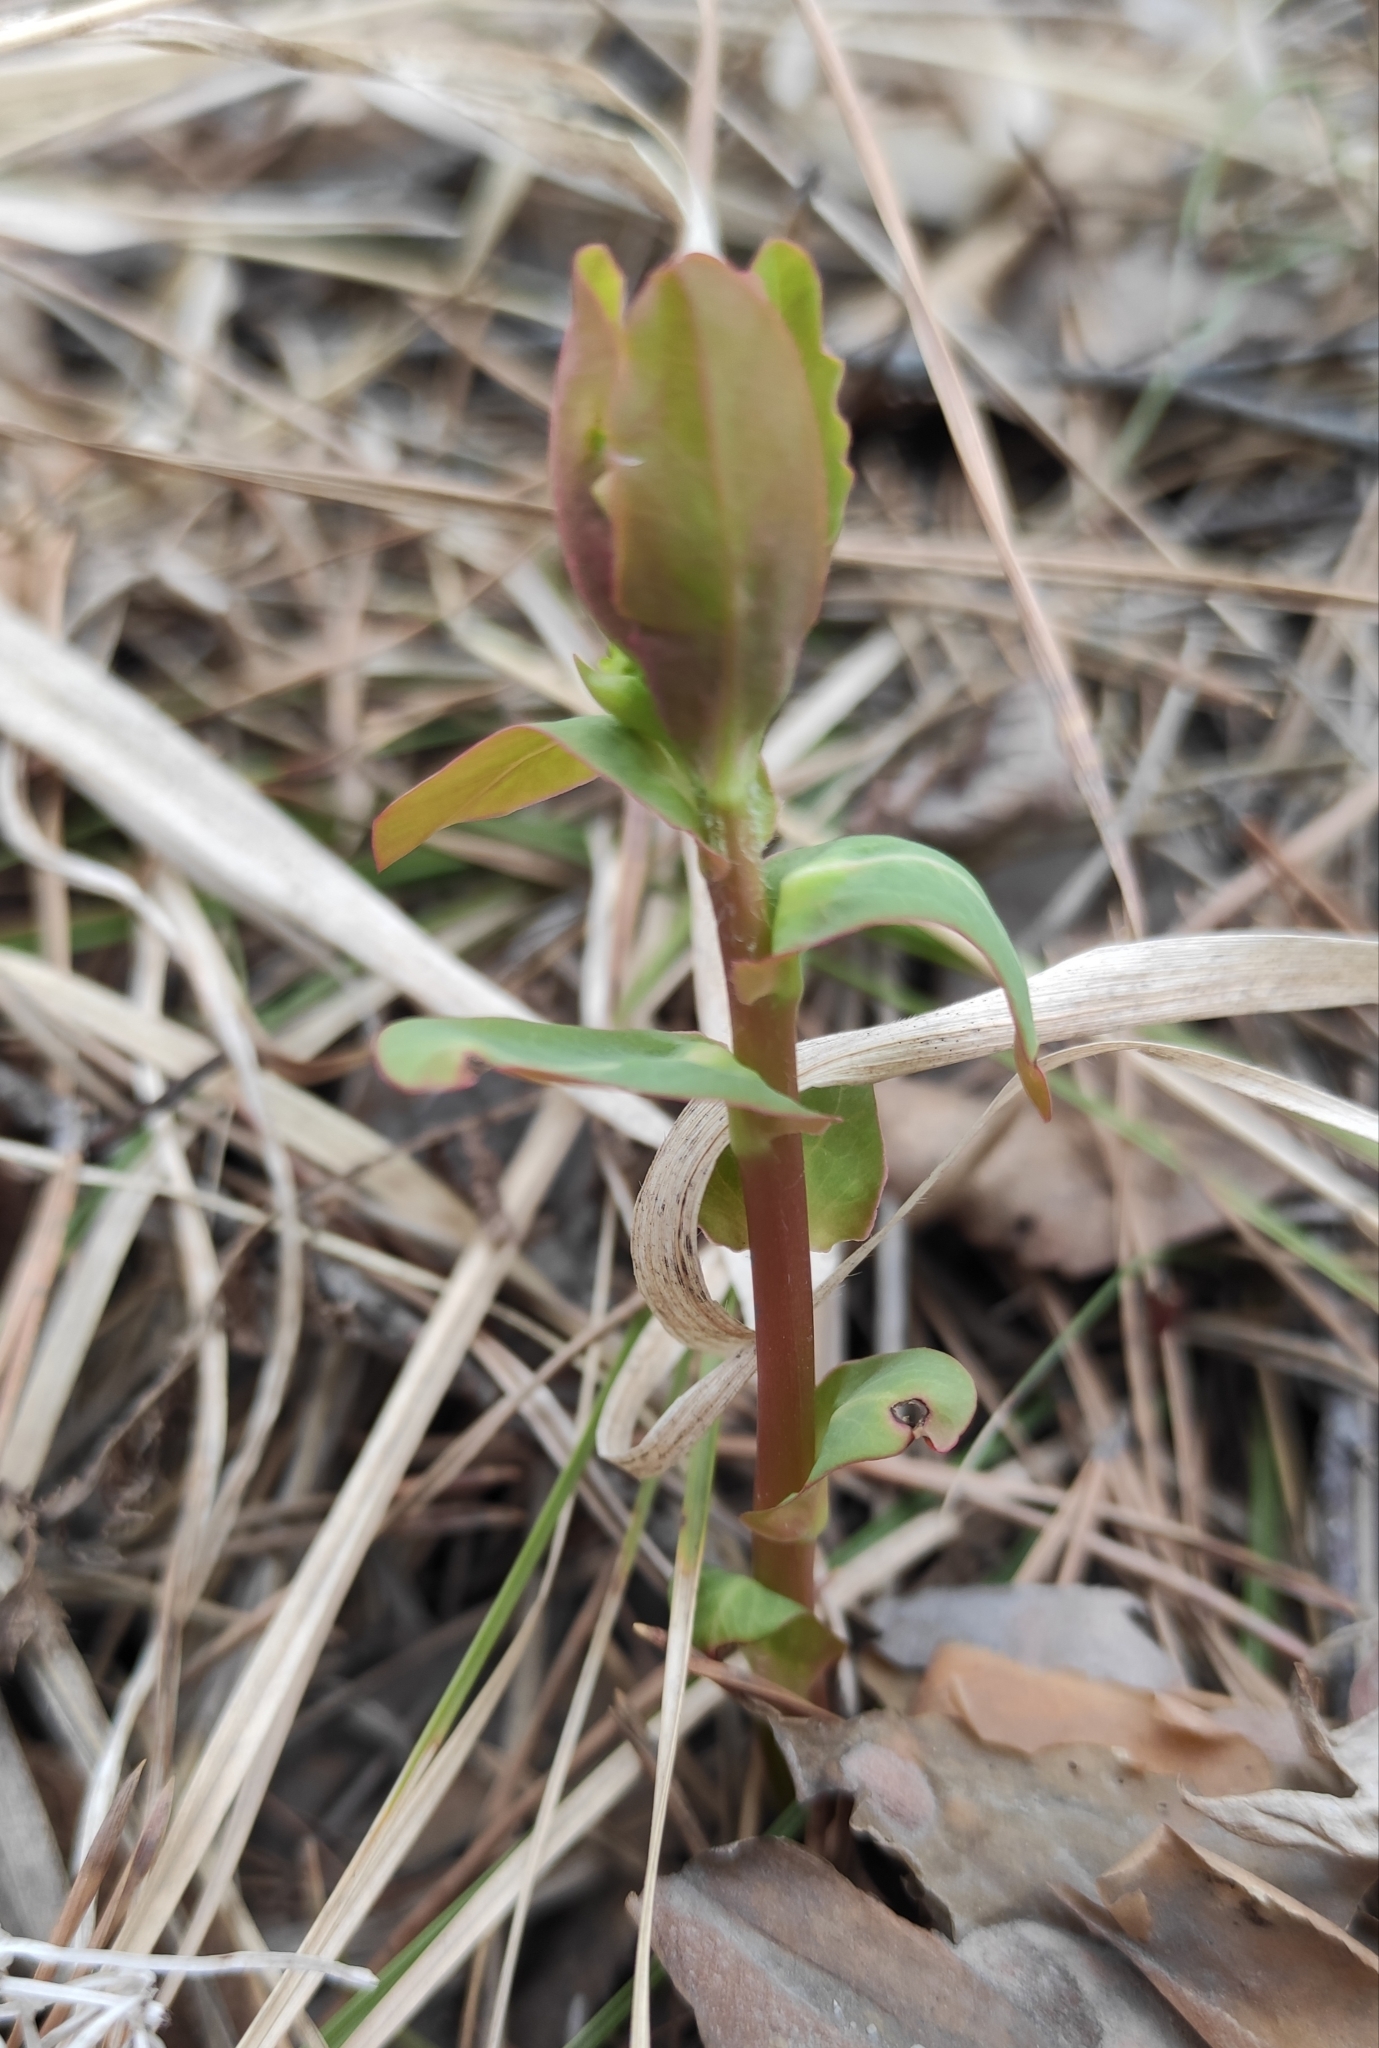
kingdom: Plantae
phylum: Tracheophyta
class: Magnoliopsida
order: Malpighiales
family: Euphorbiaceae
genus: Euphorbia
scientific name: Euphorbia jenisseiensis
